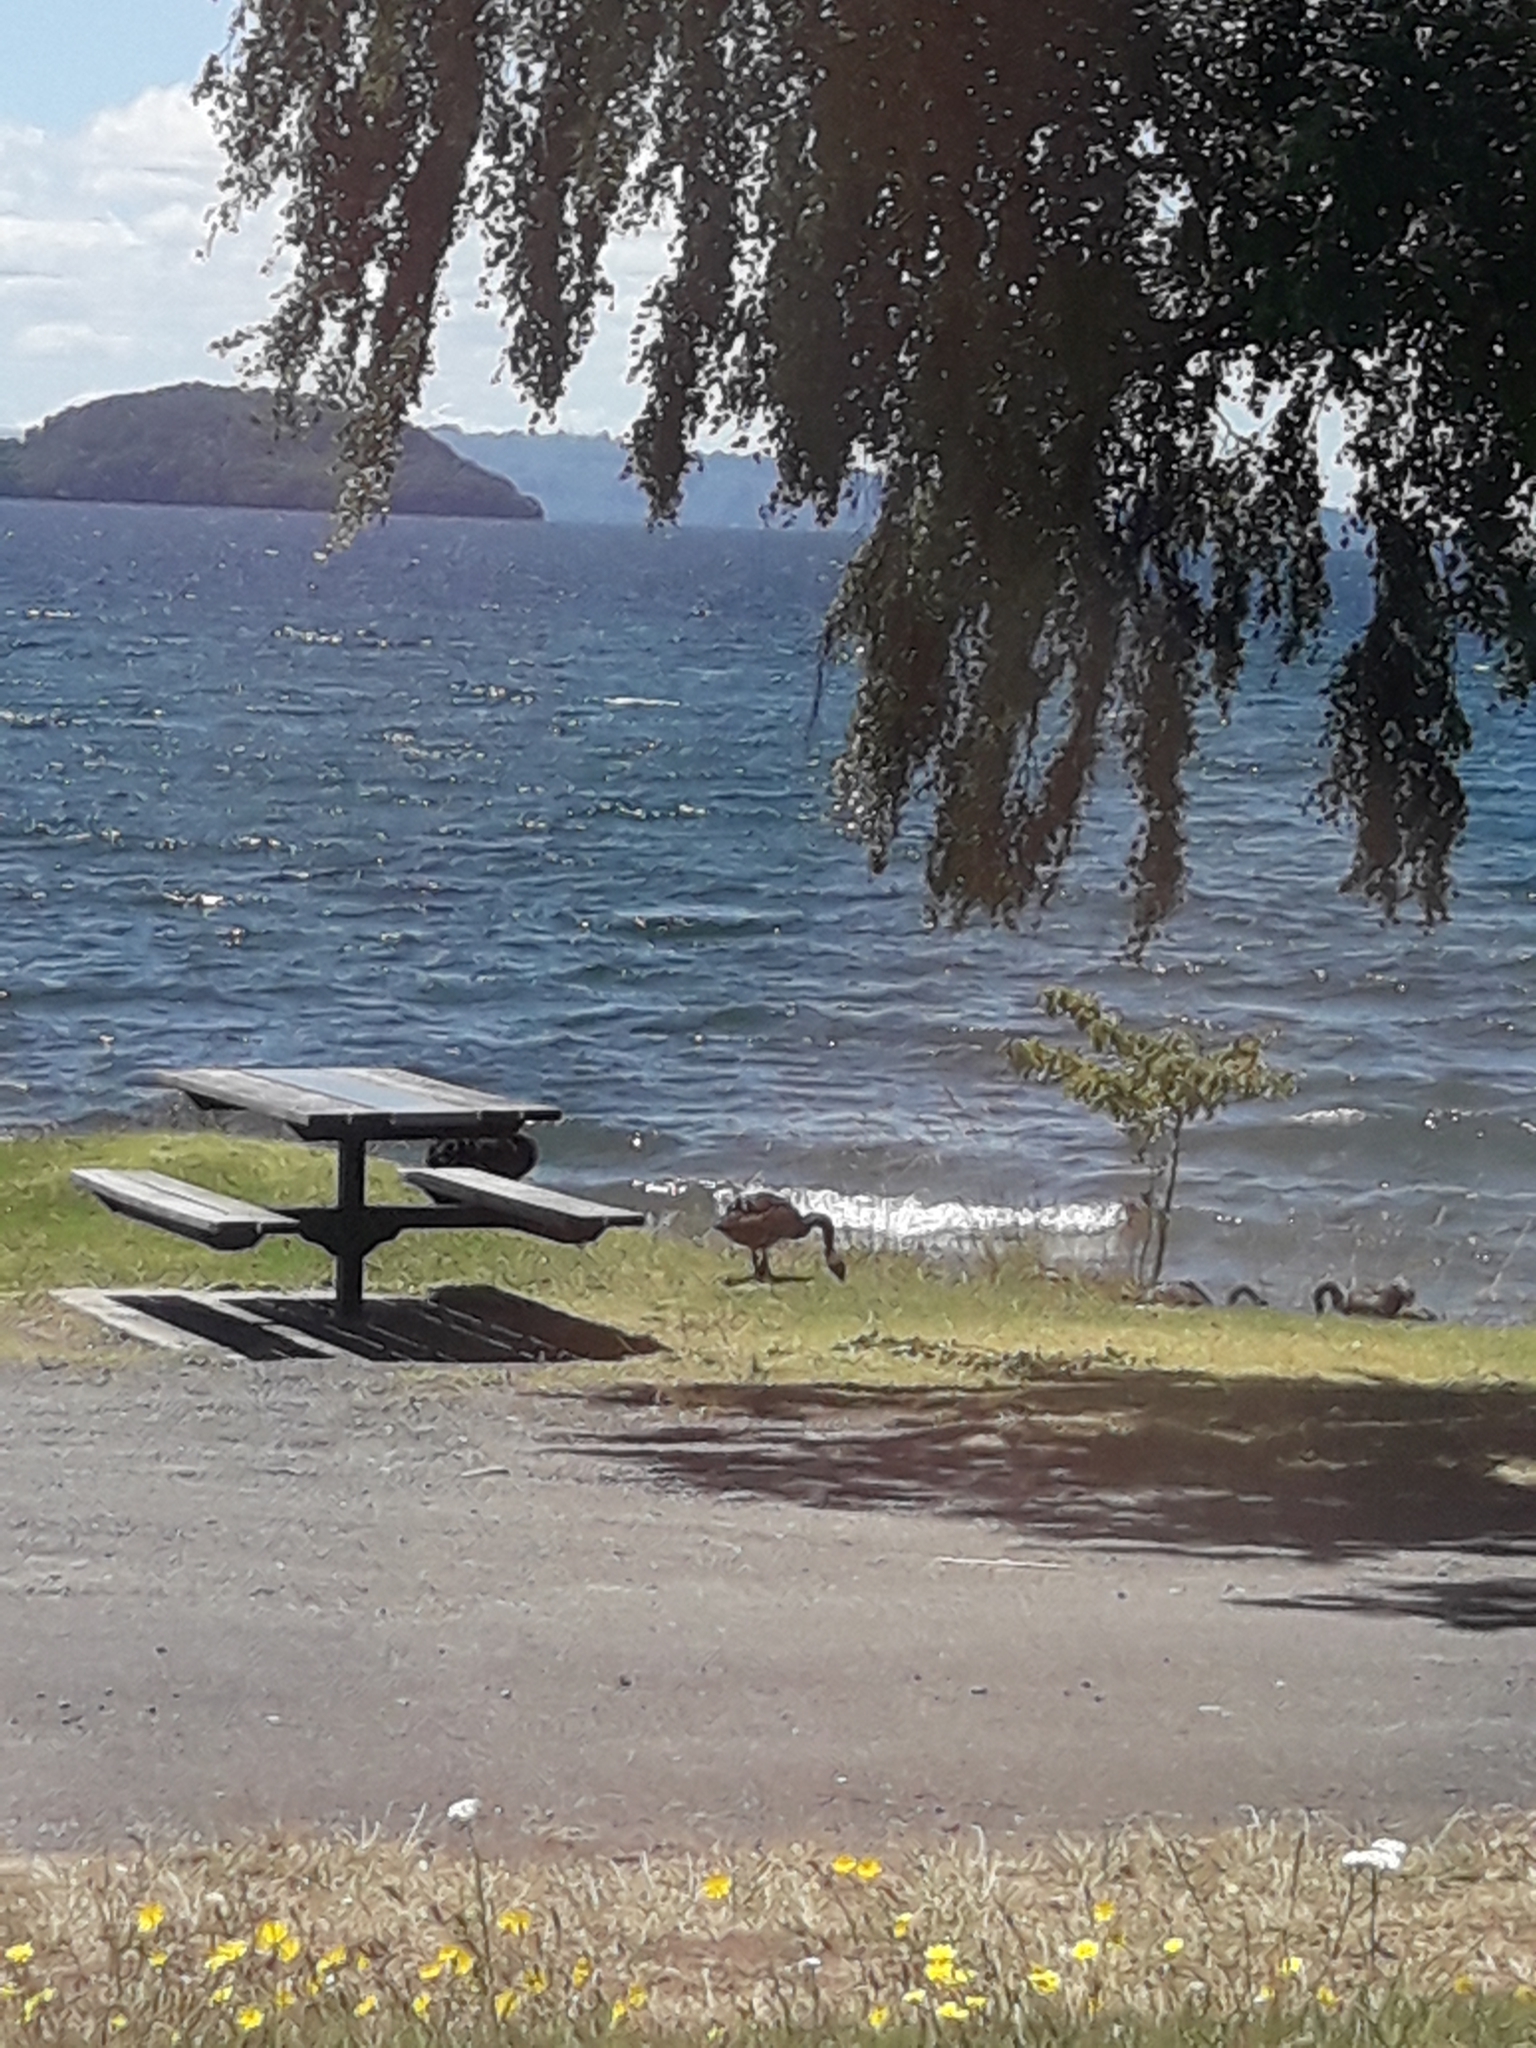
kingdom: Animalia
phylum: Chordata
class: Aves
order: Anseriformes
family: Anatidae
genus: Cygnus
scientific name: Cygnus atratus
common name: Black swan
